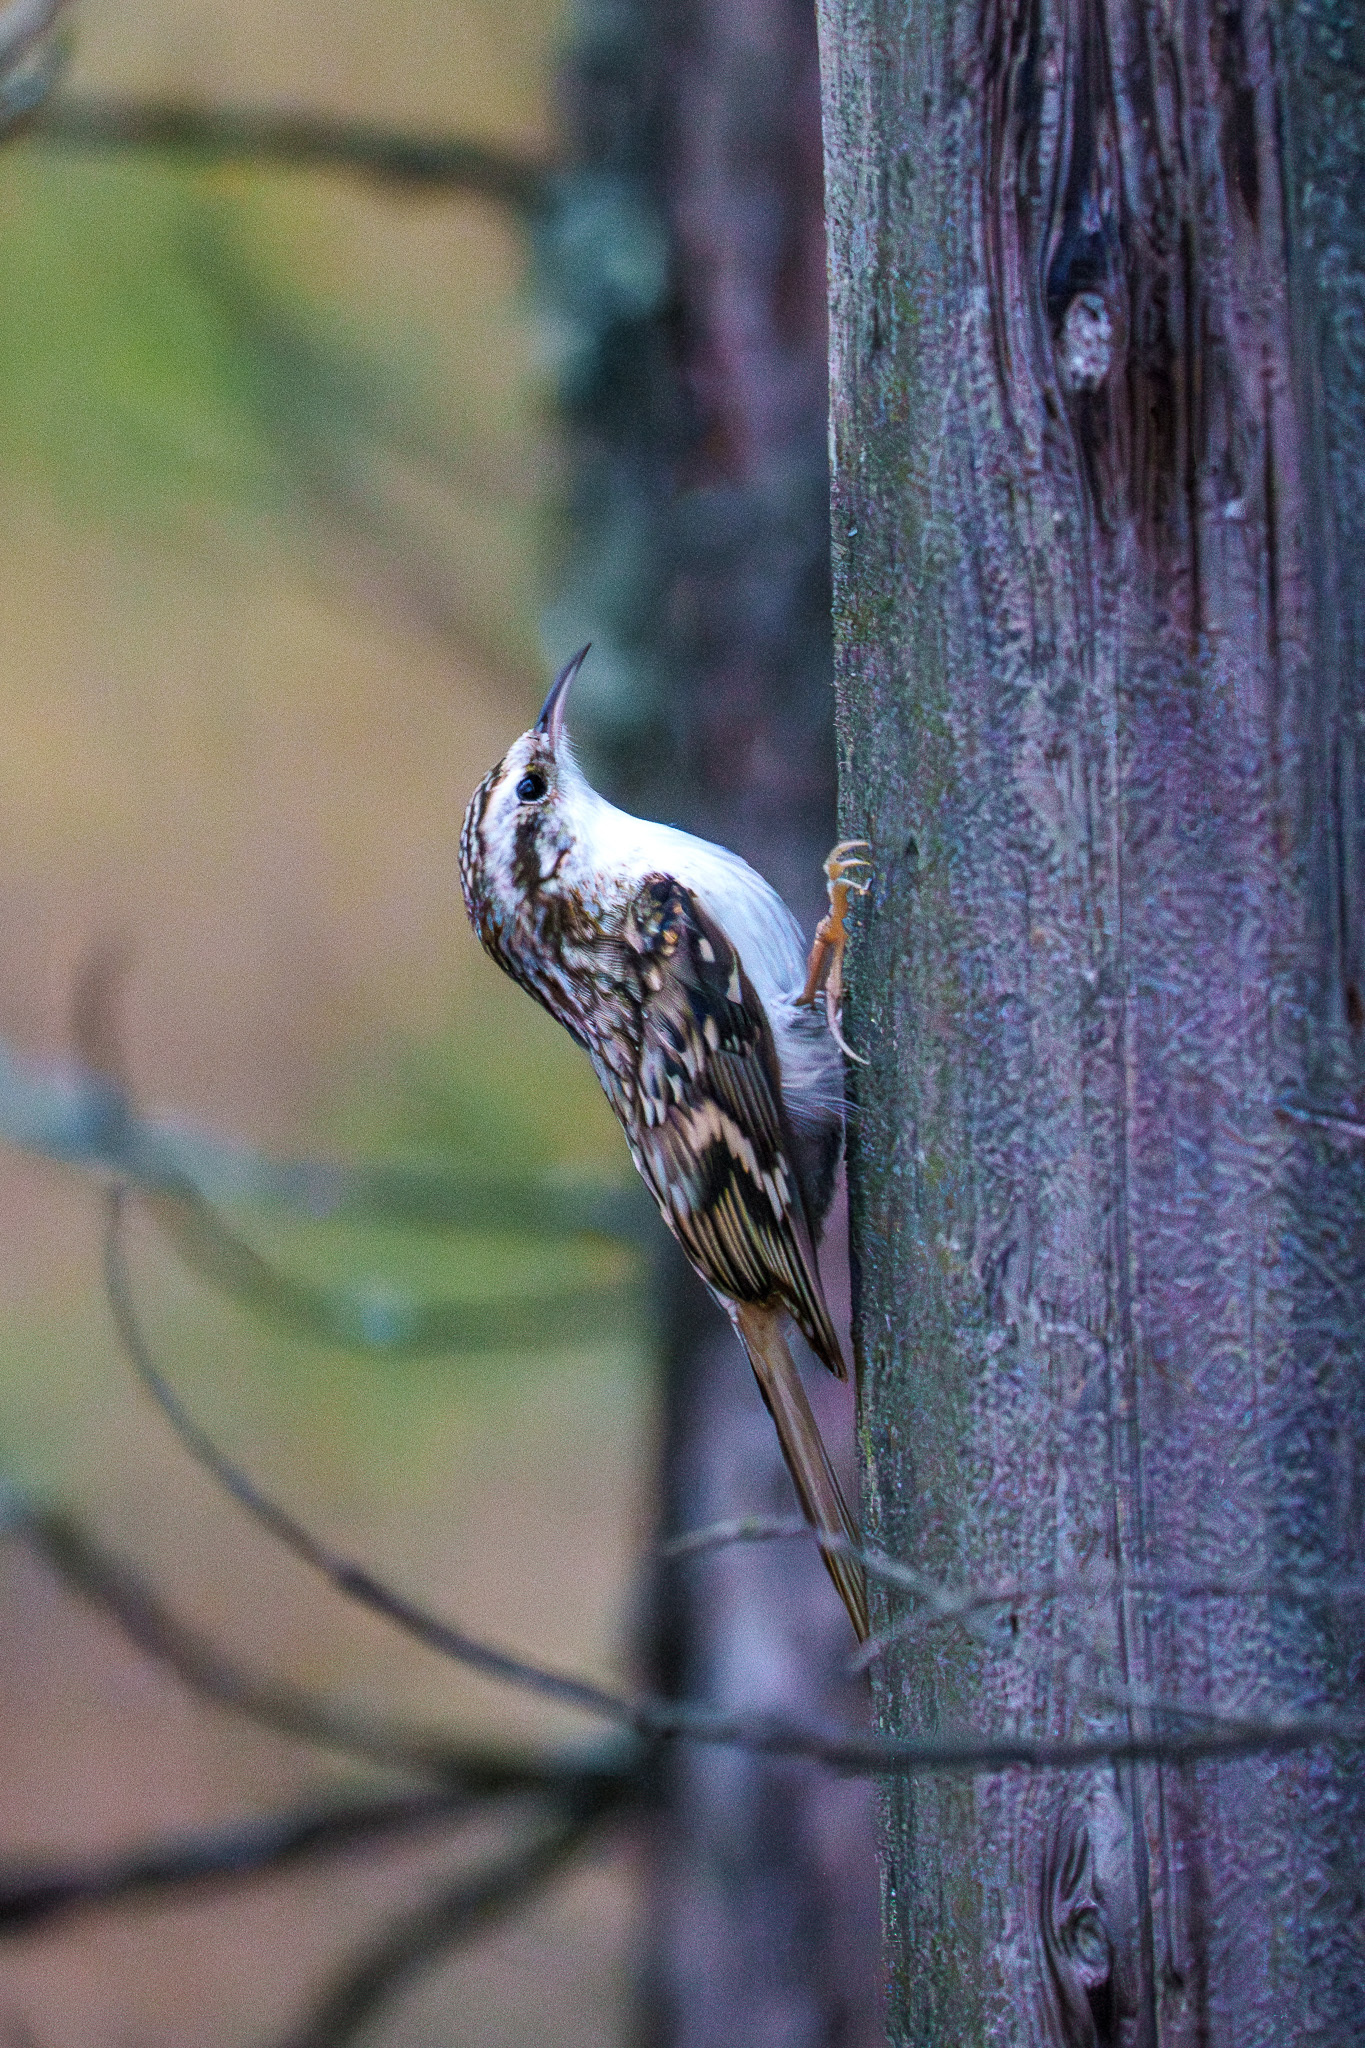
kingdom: Animalia
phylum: Chordata
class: Aves
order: Passeriformes
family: Certhiidae
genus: Certhia
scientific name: Certhia familiaris
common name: Eurasian treecreeper
